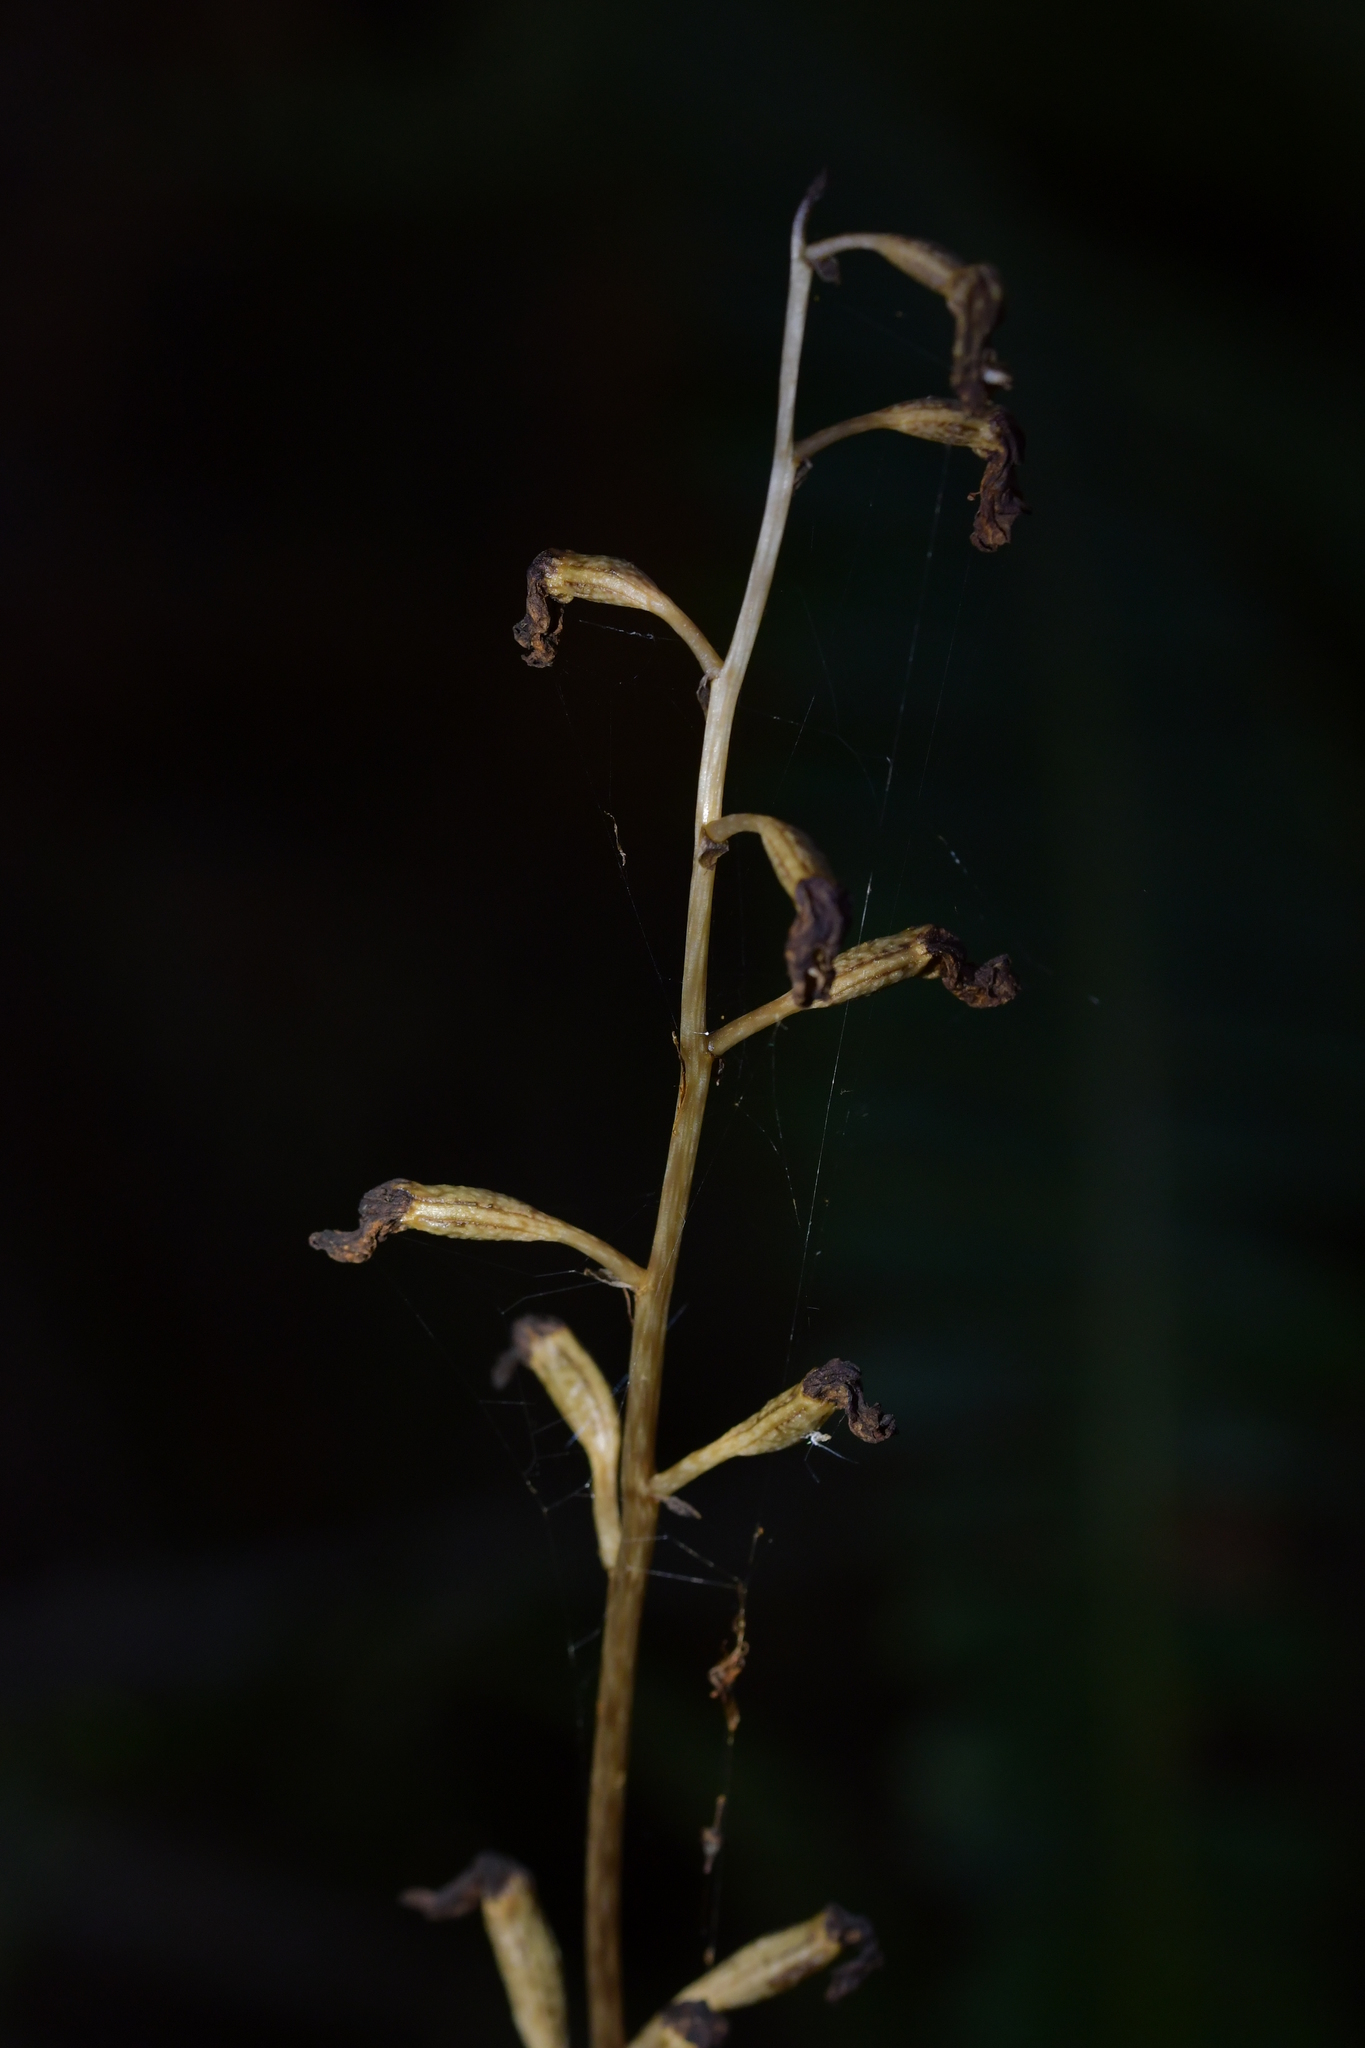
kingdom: Plantae
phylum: Tracheophyta
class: Liliopsida
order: Asparagales
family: Orchidaceae
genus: Gastrodia
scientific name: Gastrodia cunninghamii
